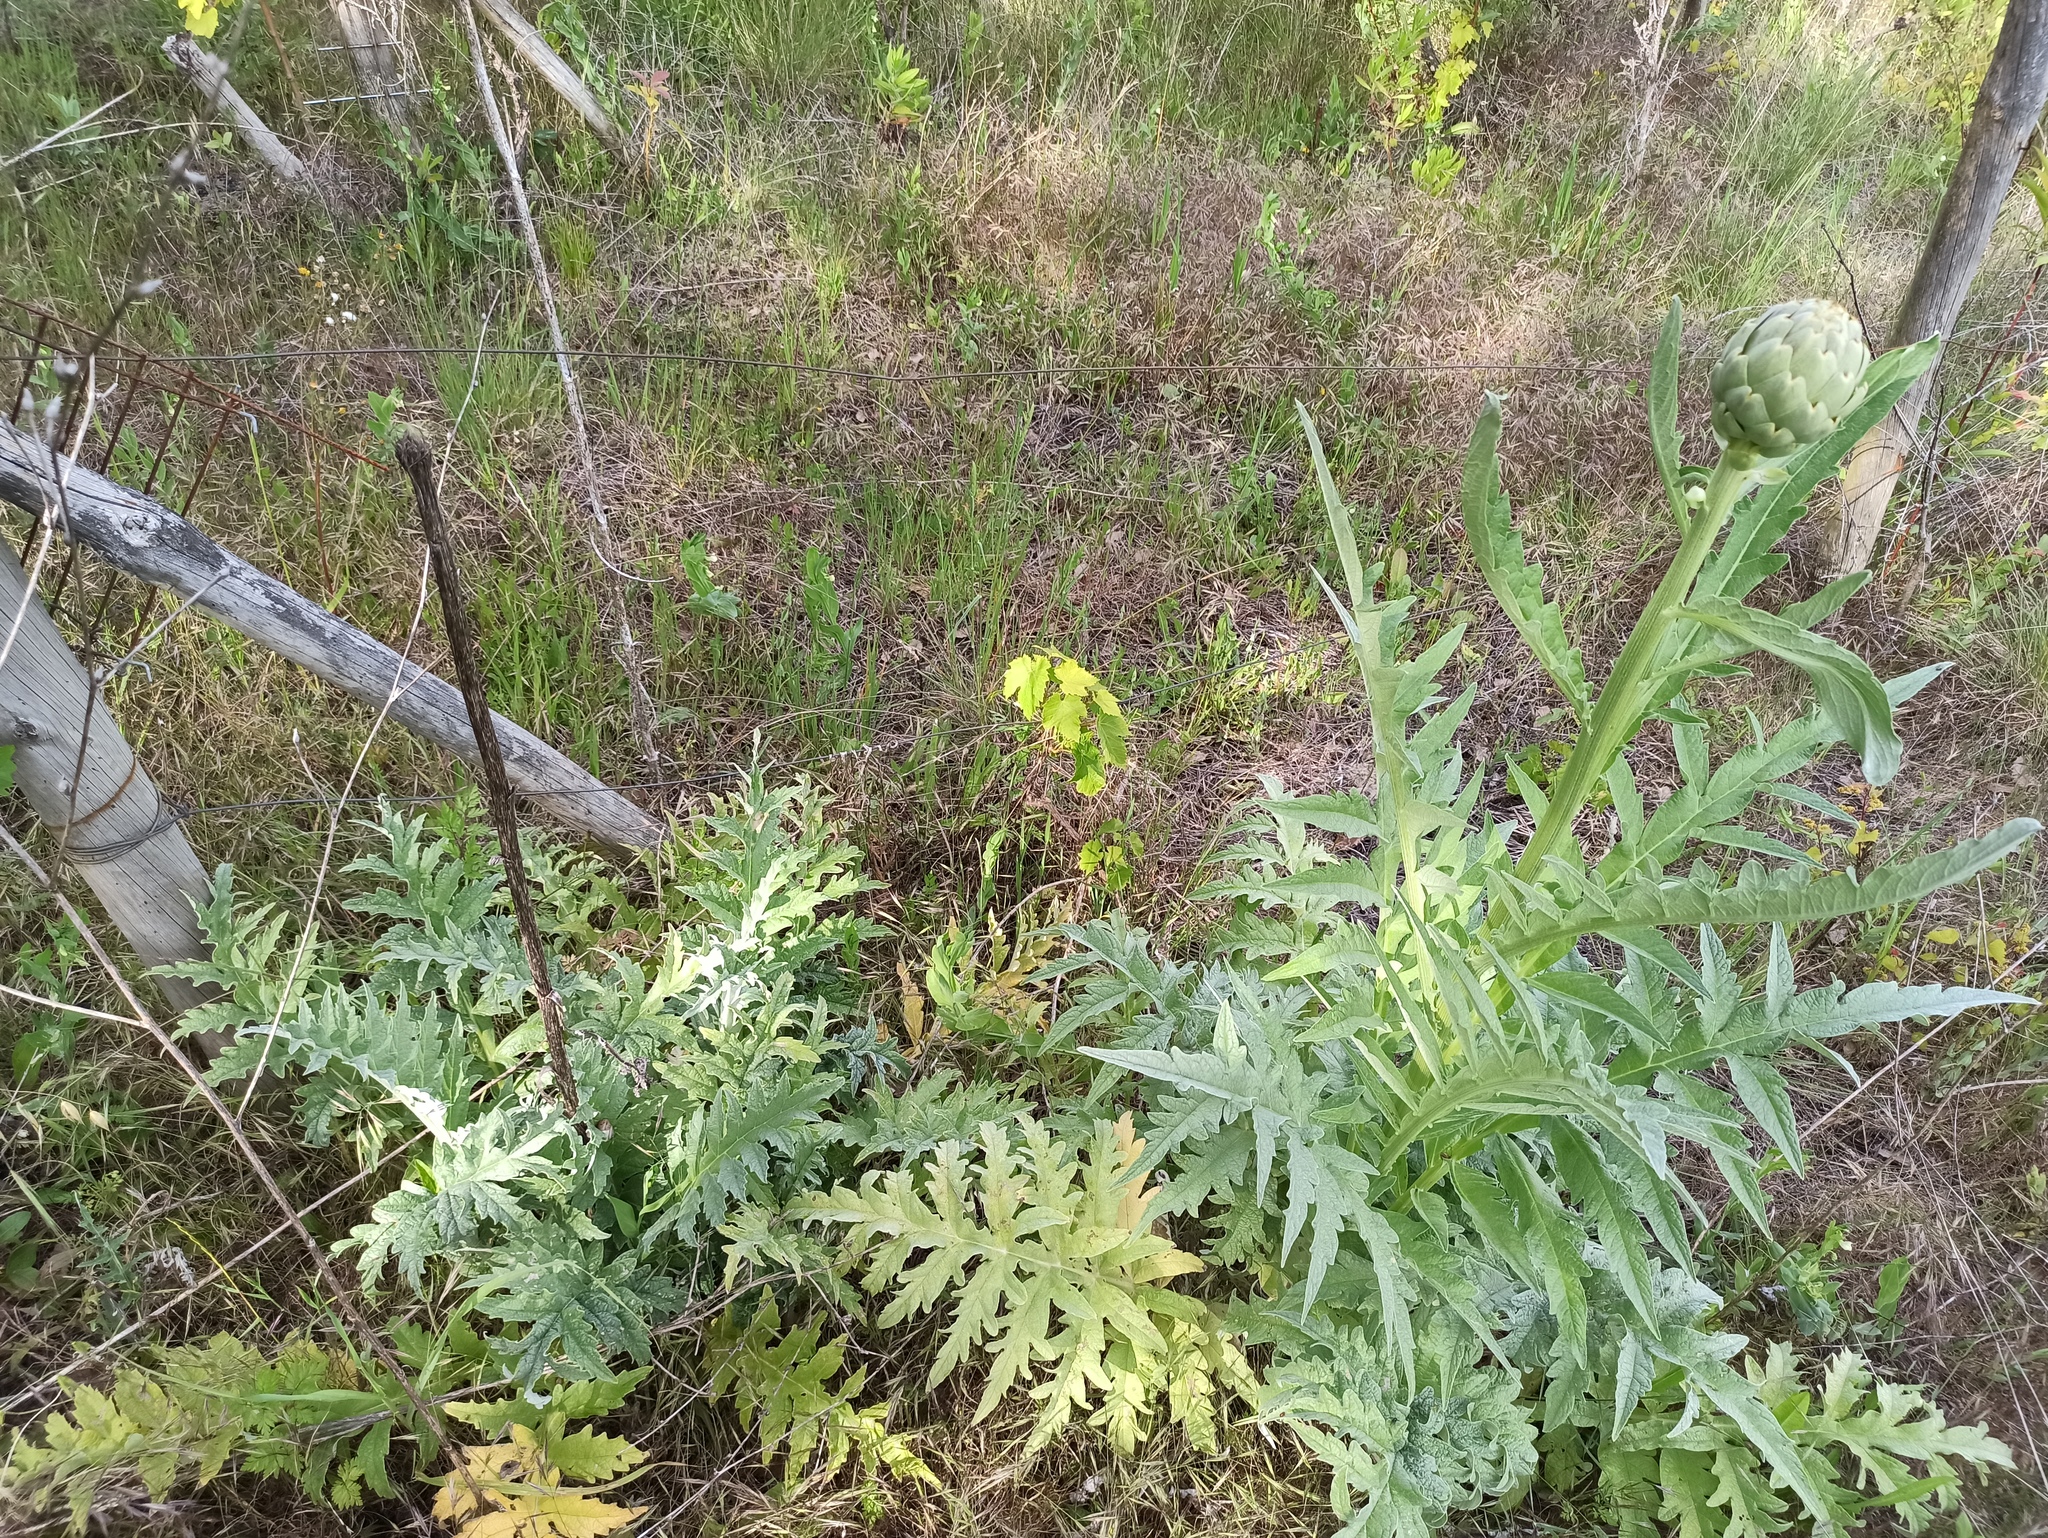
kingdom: Plantae
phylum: Tracheophyta
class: Magnoliopsida
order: Asterales
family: Asteraceae
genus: Cynara
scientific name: Cynara scolymus
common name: Globe artichoke
